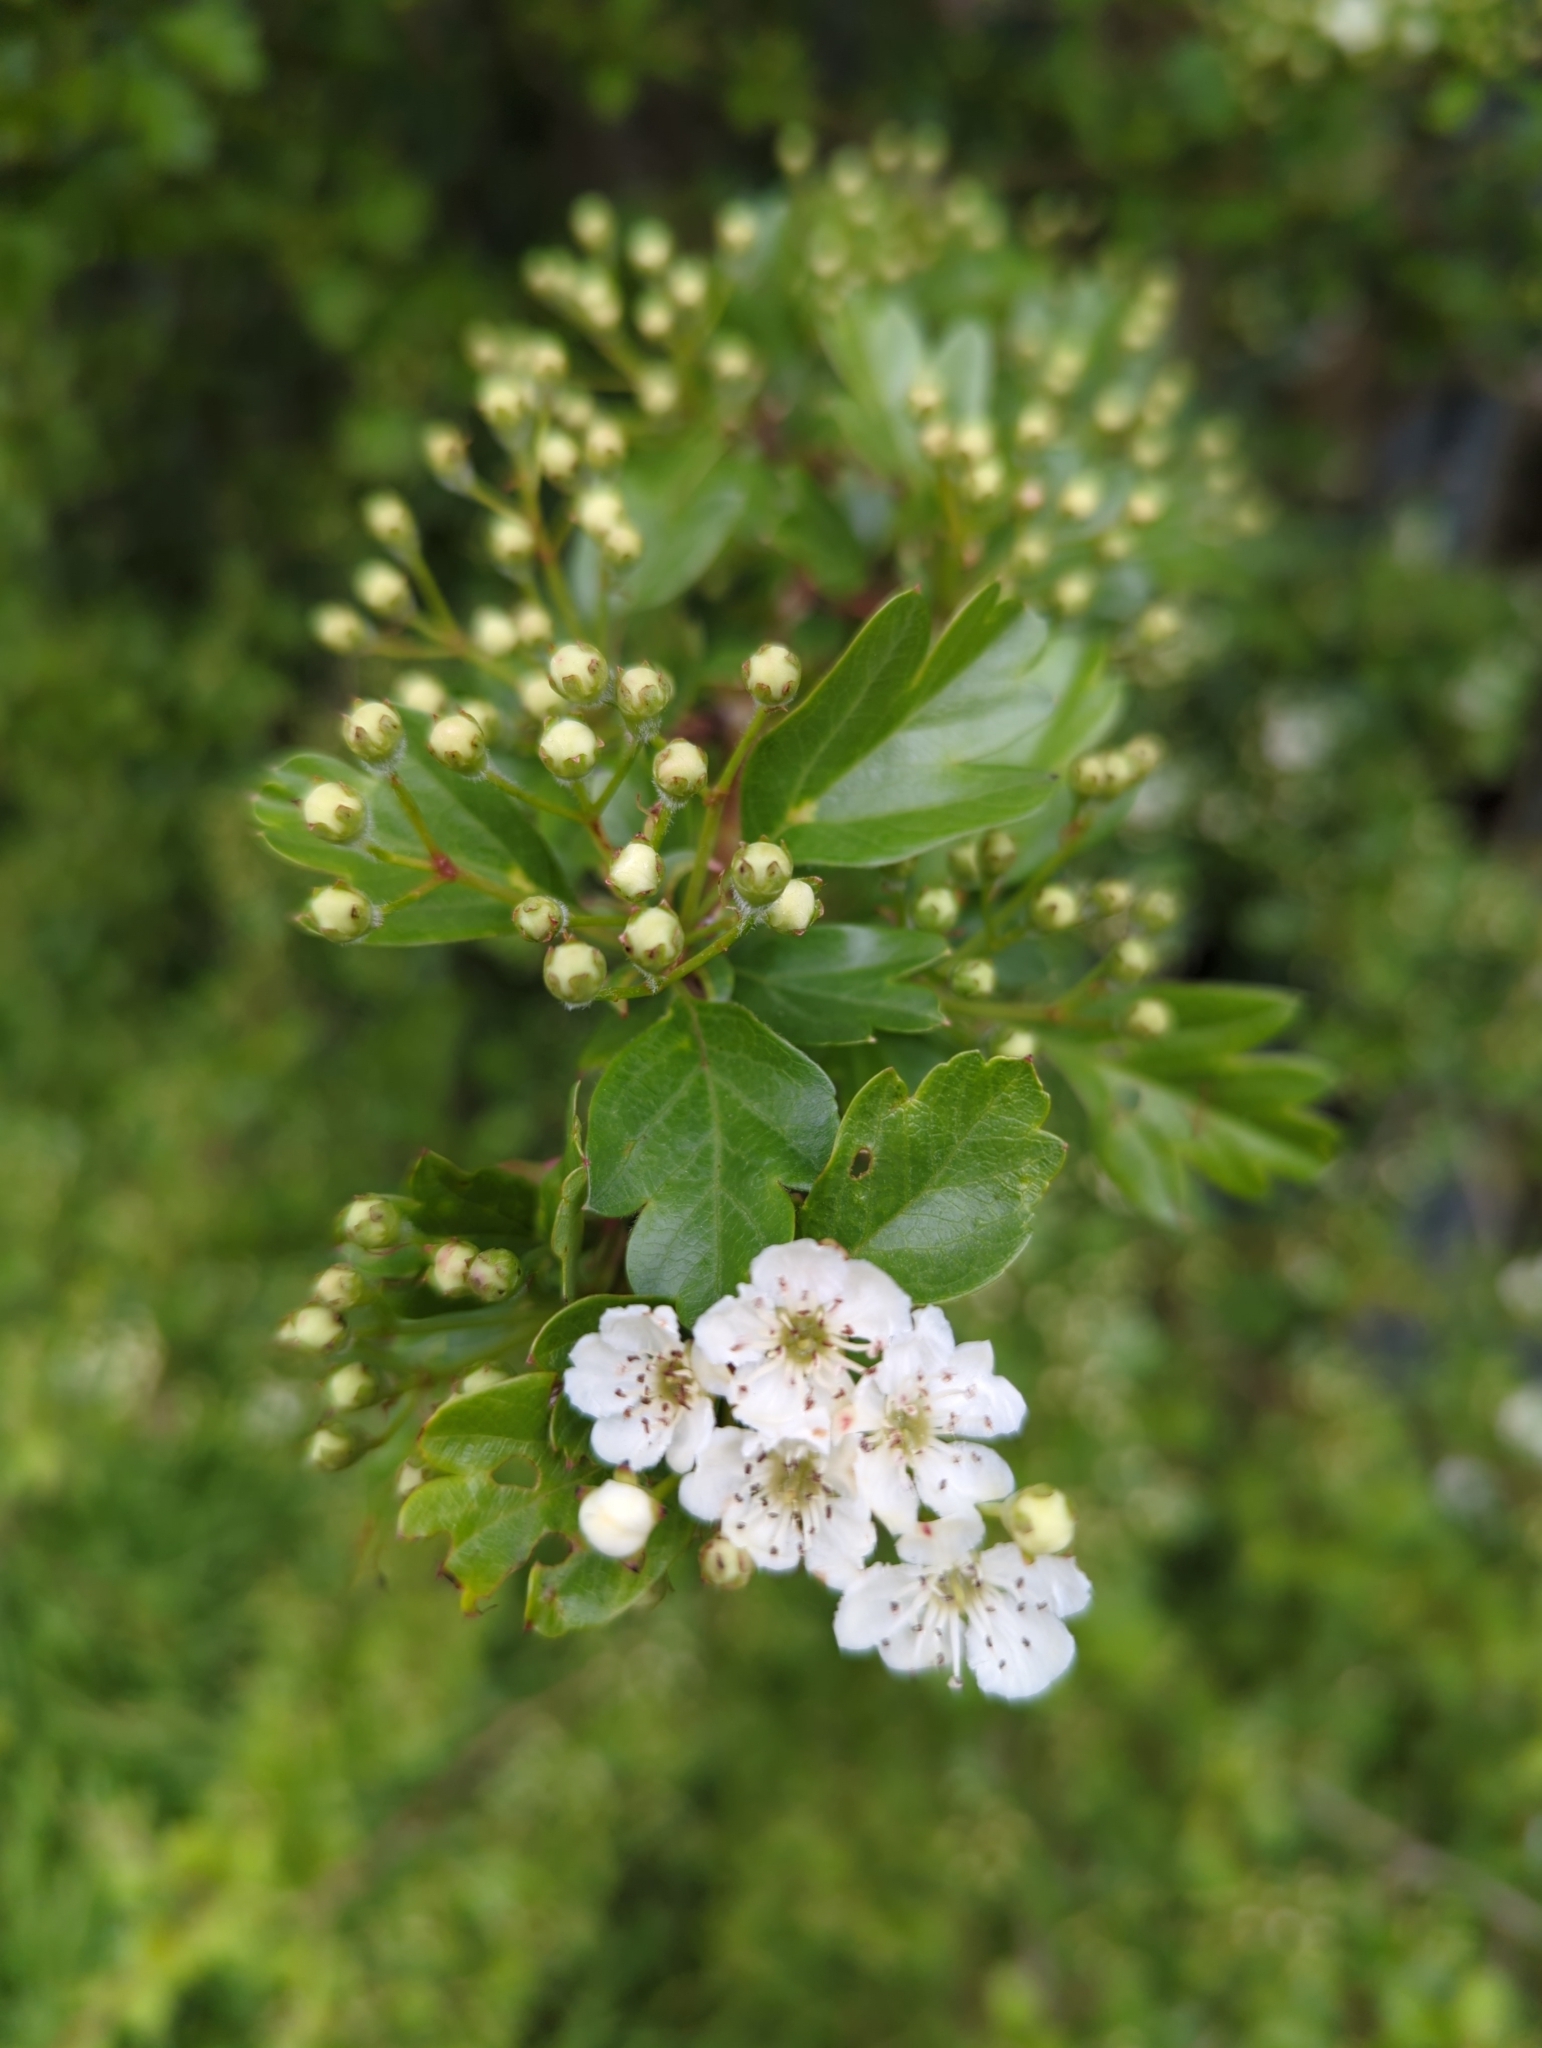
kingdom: Plantae
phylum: Tracheophyta
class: Magnoliopsida
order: Rosales
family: Rosaceae
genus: Crataegus
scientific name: Crataegus monogyna
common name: Hawthorn
